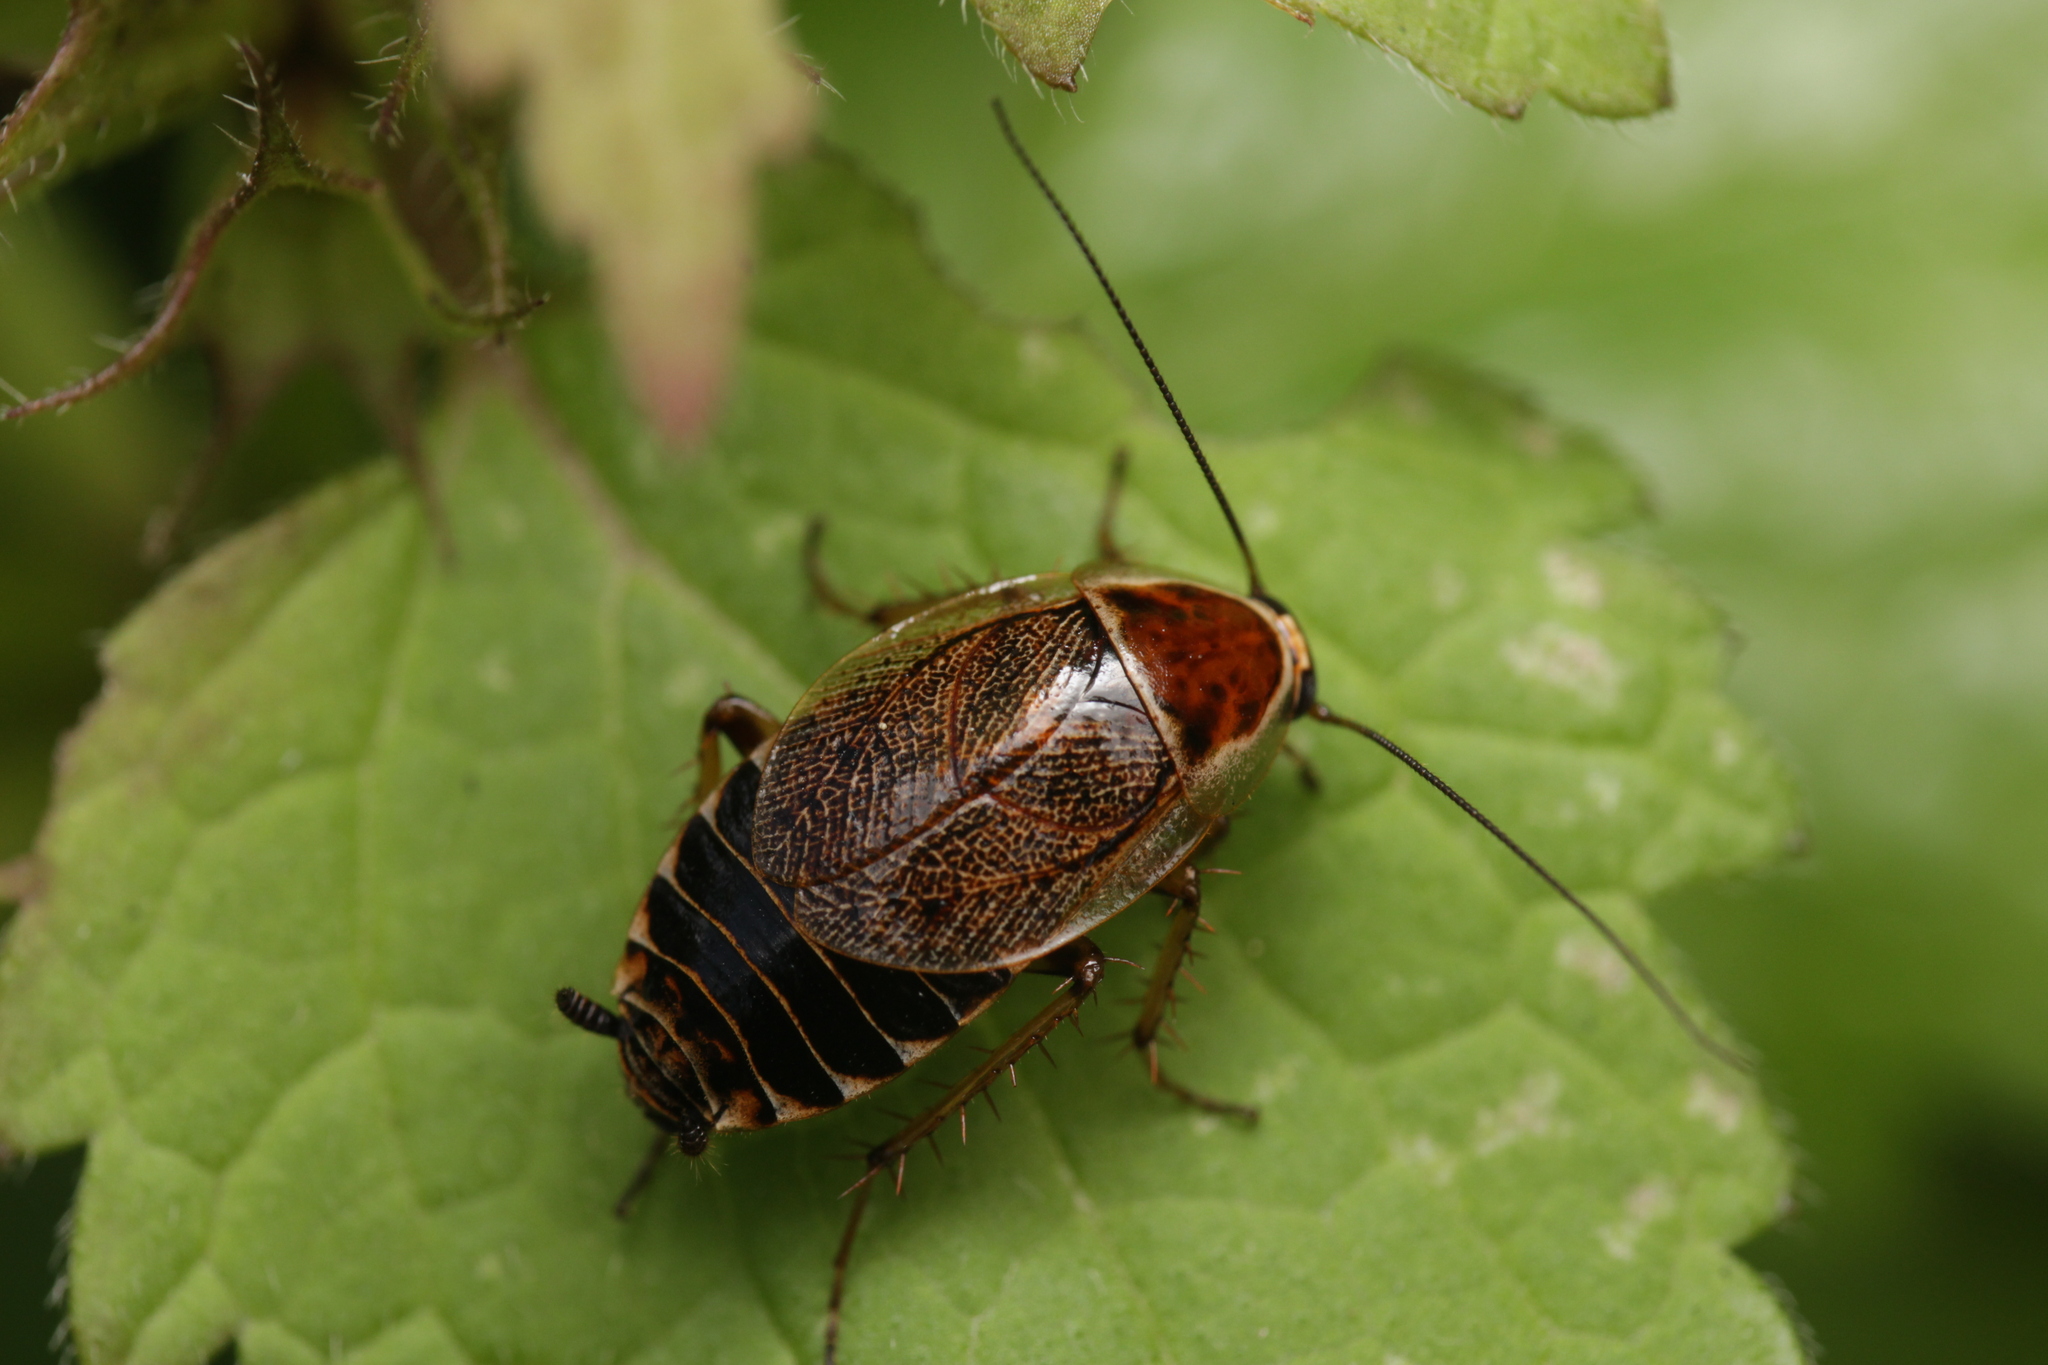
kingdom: Animalia
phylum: Arthropoda
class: Insecta
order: Blattodea
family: Ectobiidae
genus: Ectobius
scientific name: Ectobius sylvestris
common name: Forest cockroach
